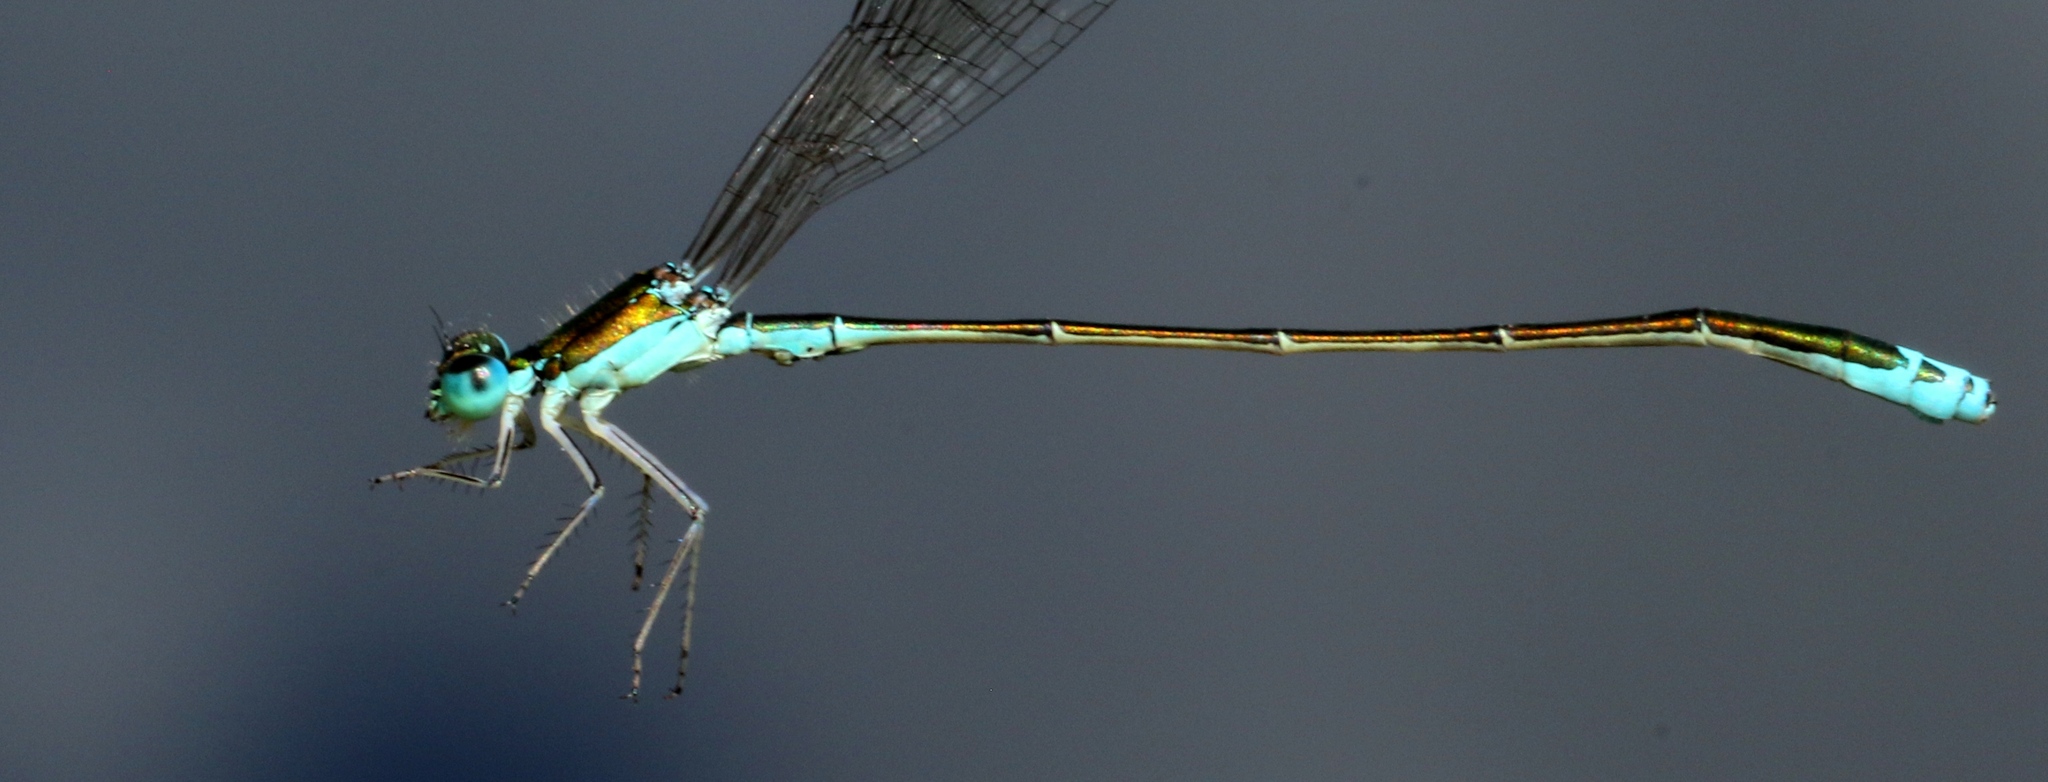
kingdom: Animalia
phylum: Arthropoda
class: Insecta
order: Odonata
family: Coenagrionidae
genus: Nehalennia
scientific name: Nehalennia irene
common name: Sedge sprite
